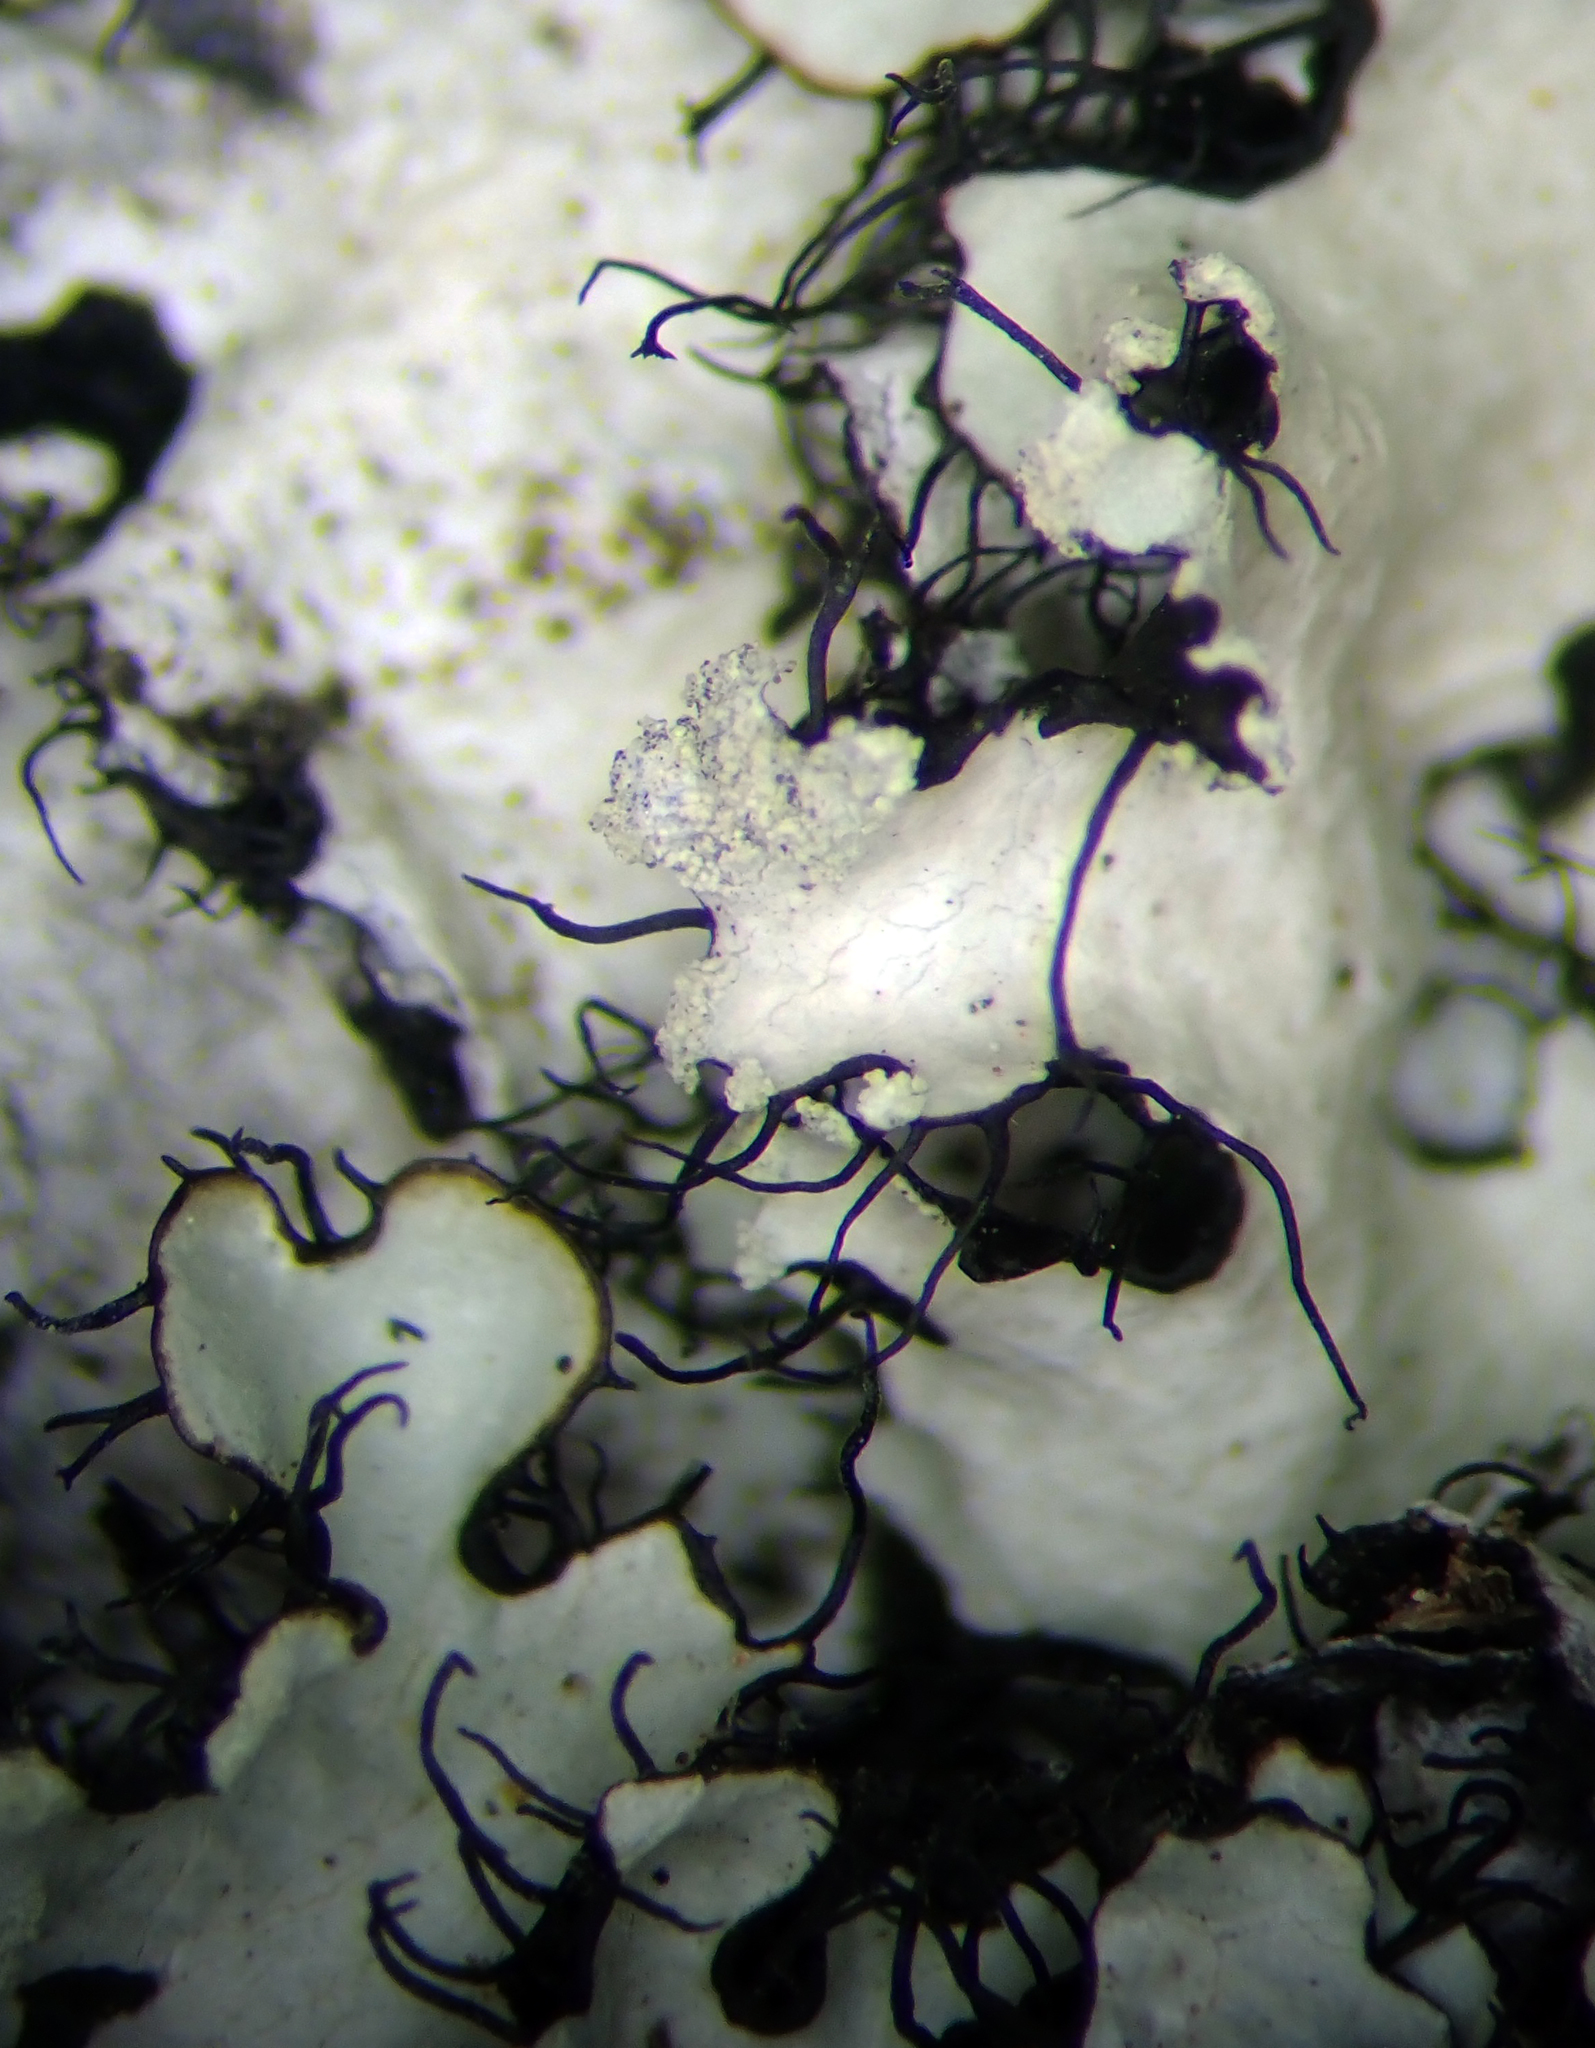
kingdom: Fungi
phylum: Ascomycota
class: Lecanoromycetes
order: Lecanorales
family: Parmeliaceae
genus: Hypotrachyna
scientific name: Hypotrachyna pseudosinuosa
